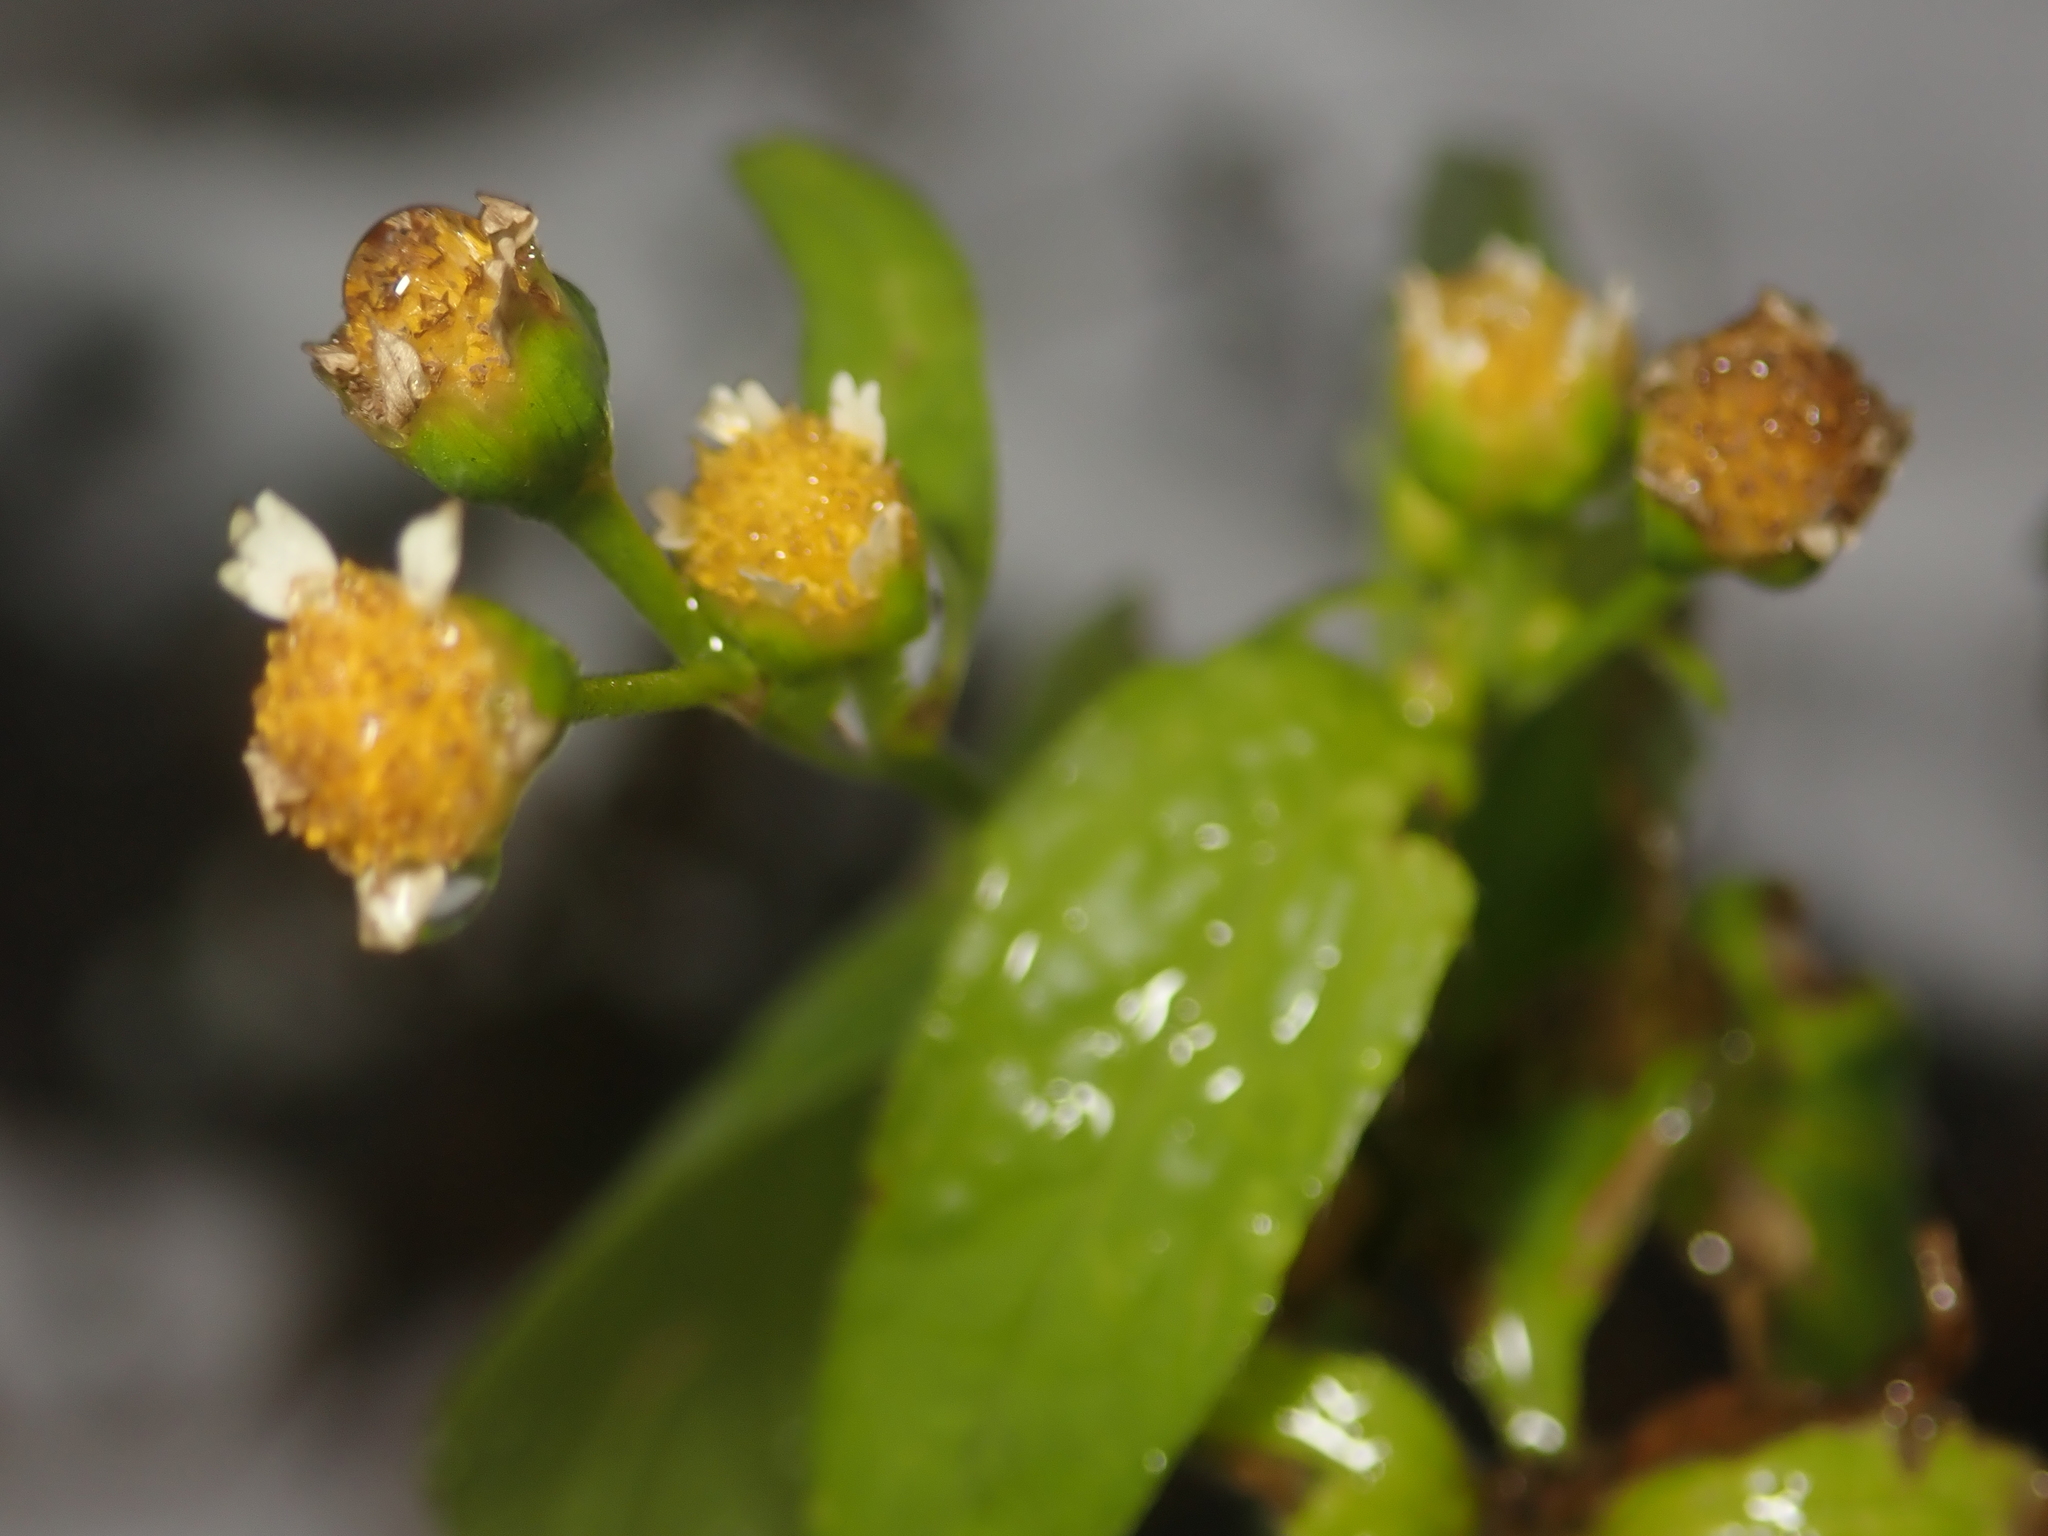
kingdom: Plantae
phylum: Tracheophyta
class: Magnoliopsida
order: Asterales
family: Asteraceae
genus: Galinsoga
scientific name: Galinsoga parviflora
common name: Gallant soldier
